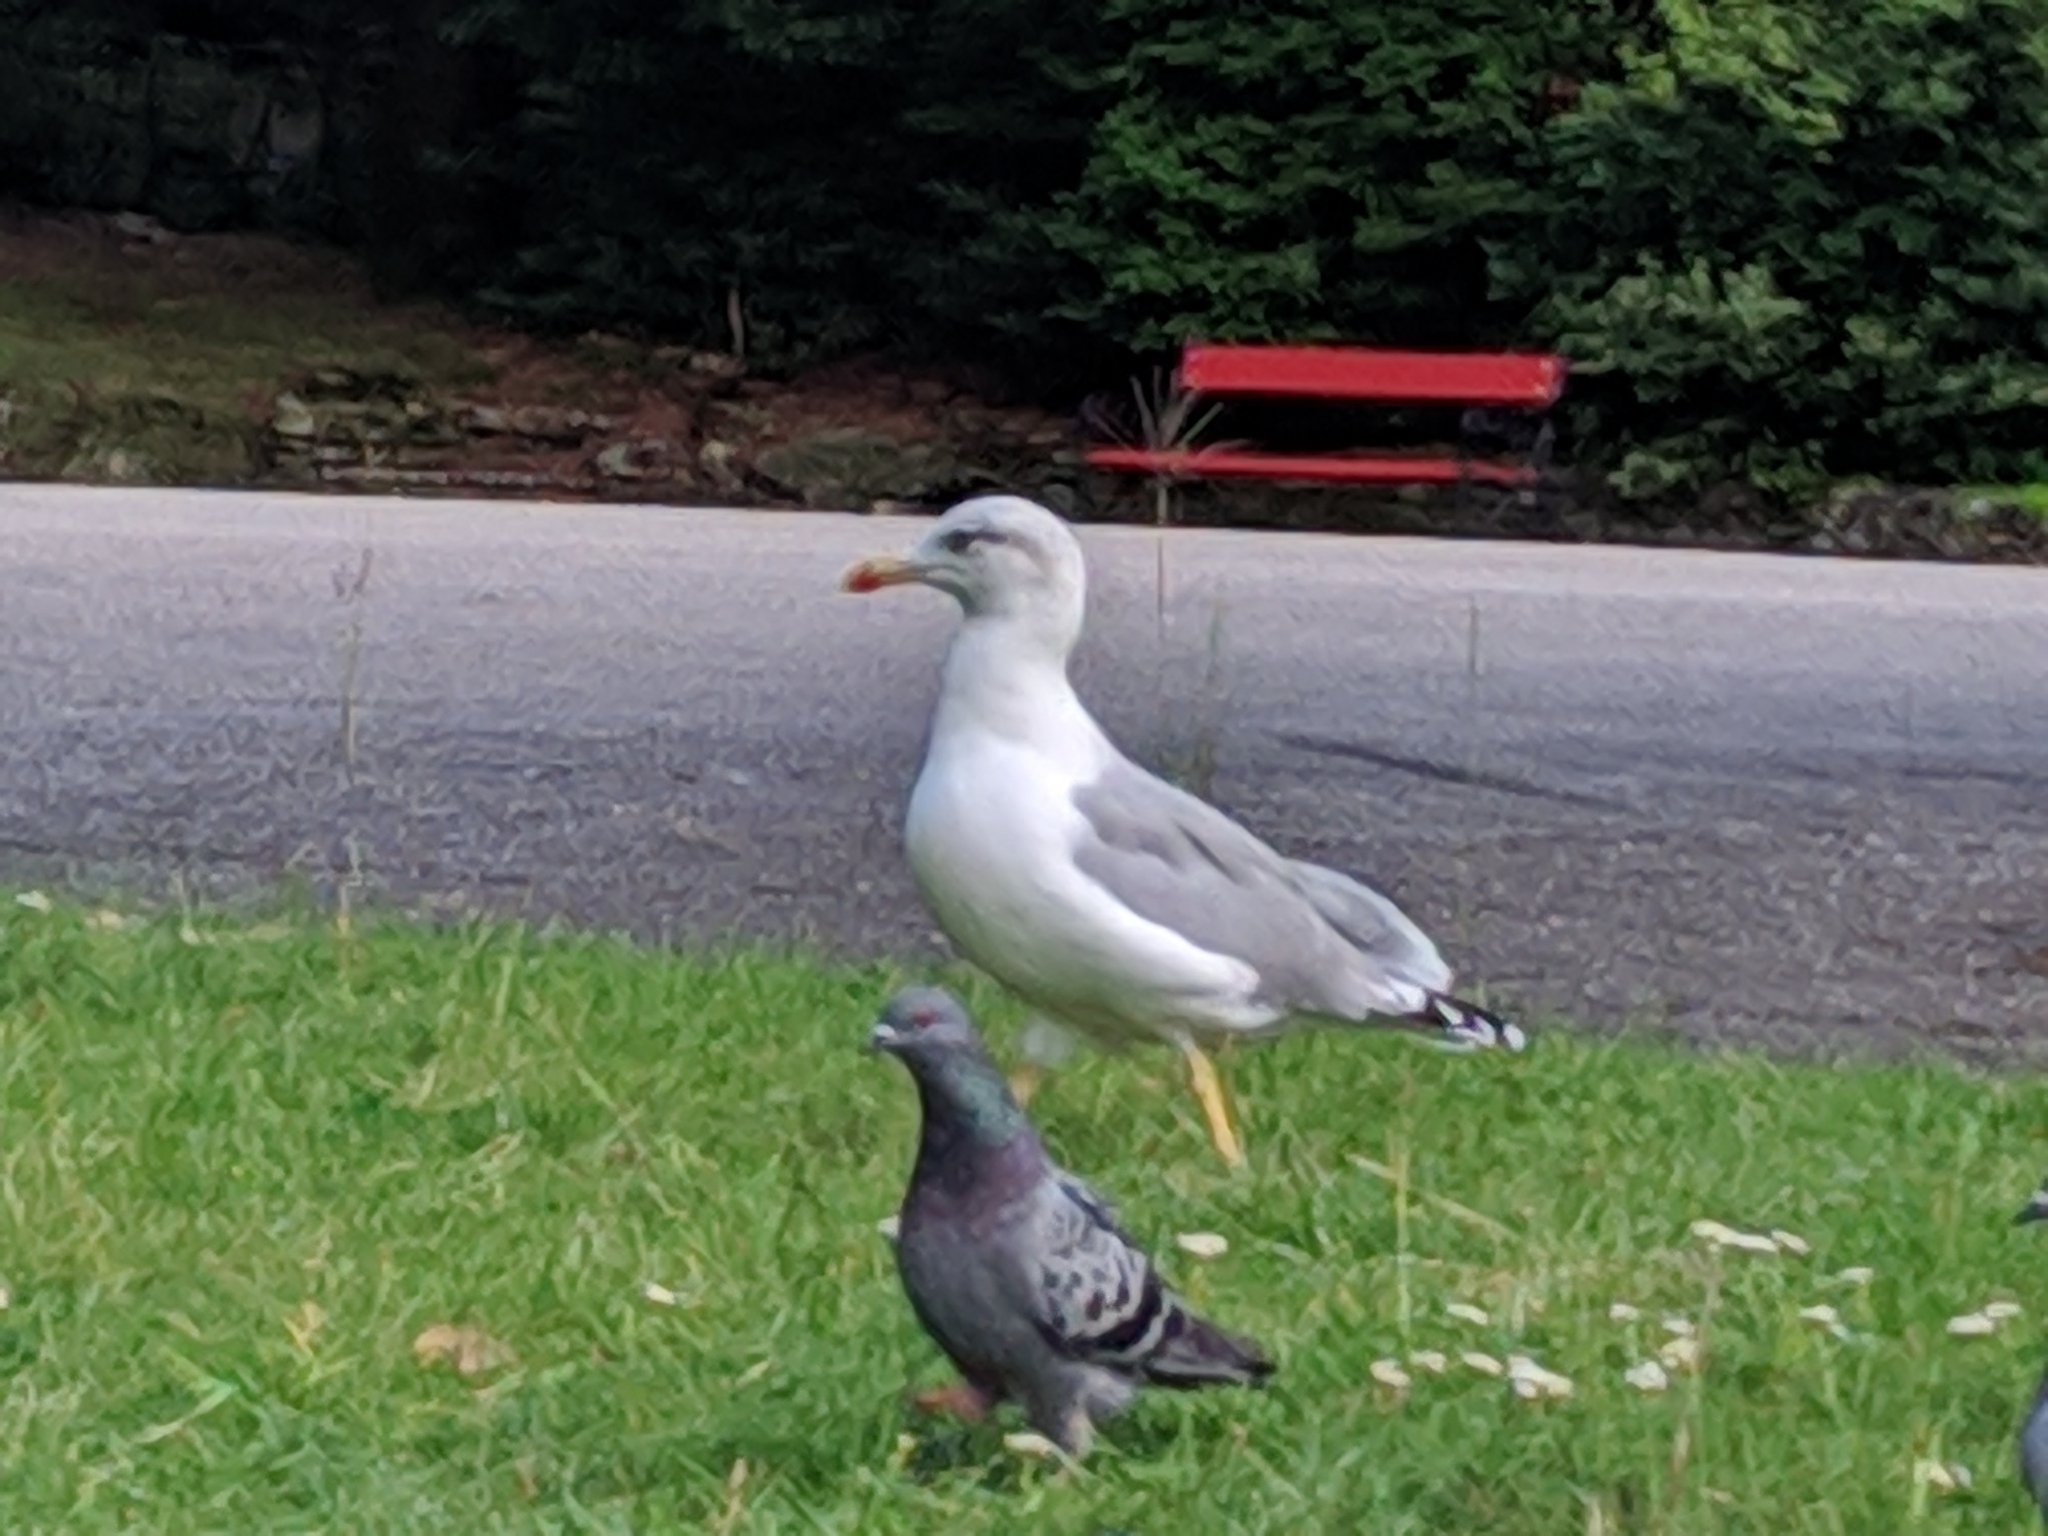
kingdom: Animalia
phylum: Chordata
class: Aves
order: Charadriiformes
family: Laridae
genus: Larus
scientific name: Larus michahellis
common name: Yellow-legged gull
